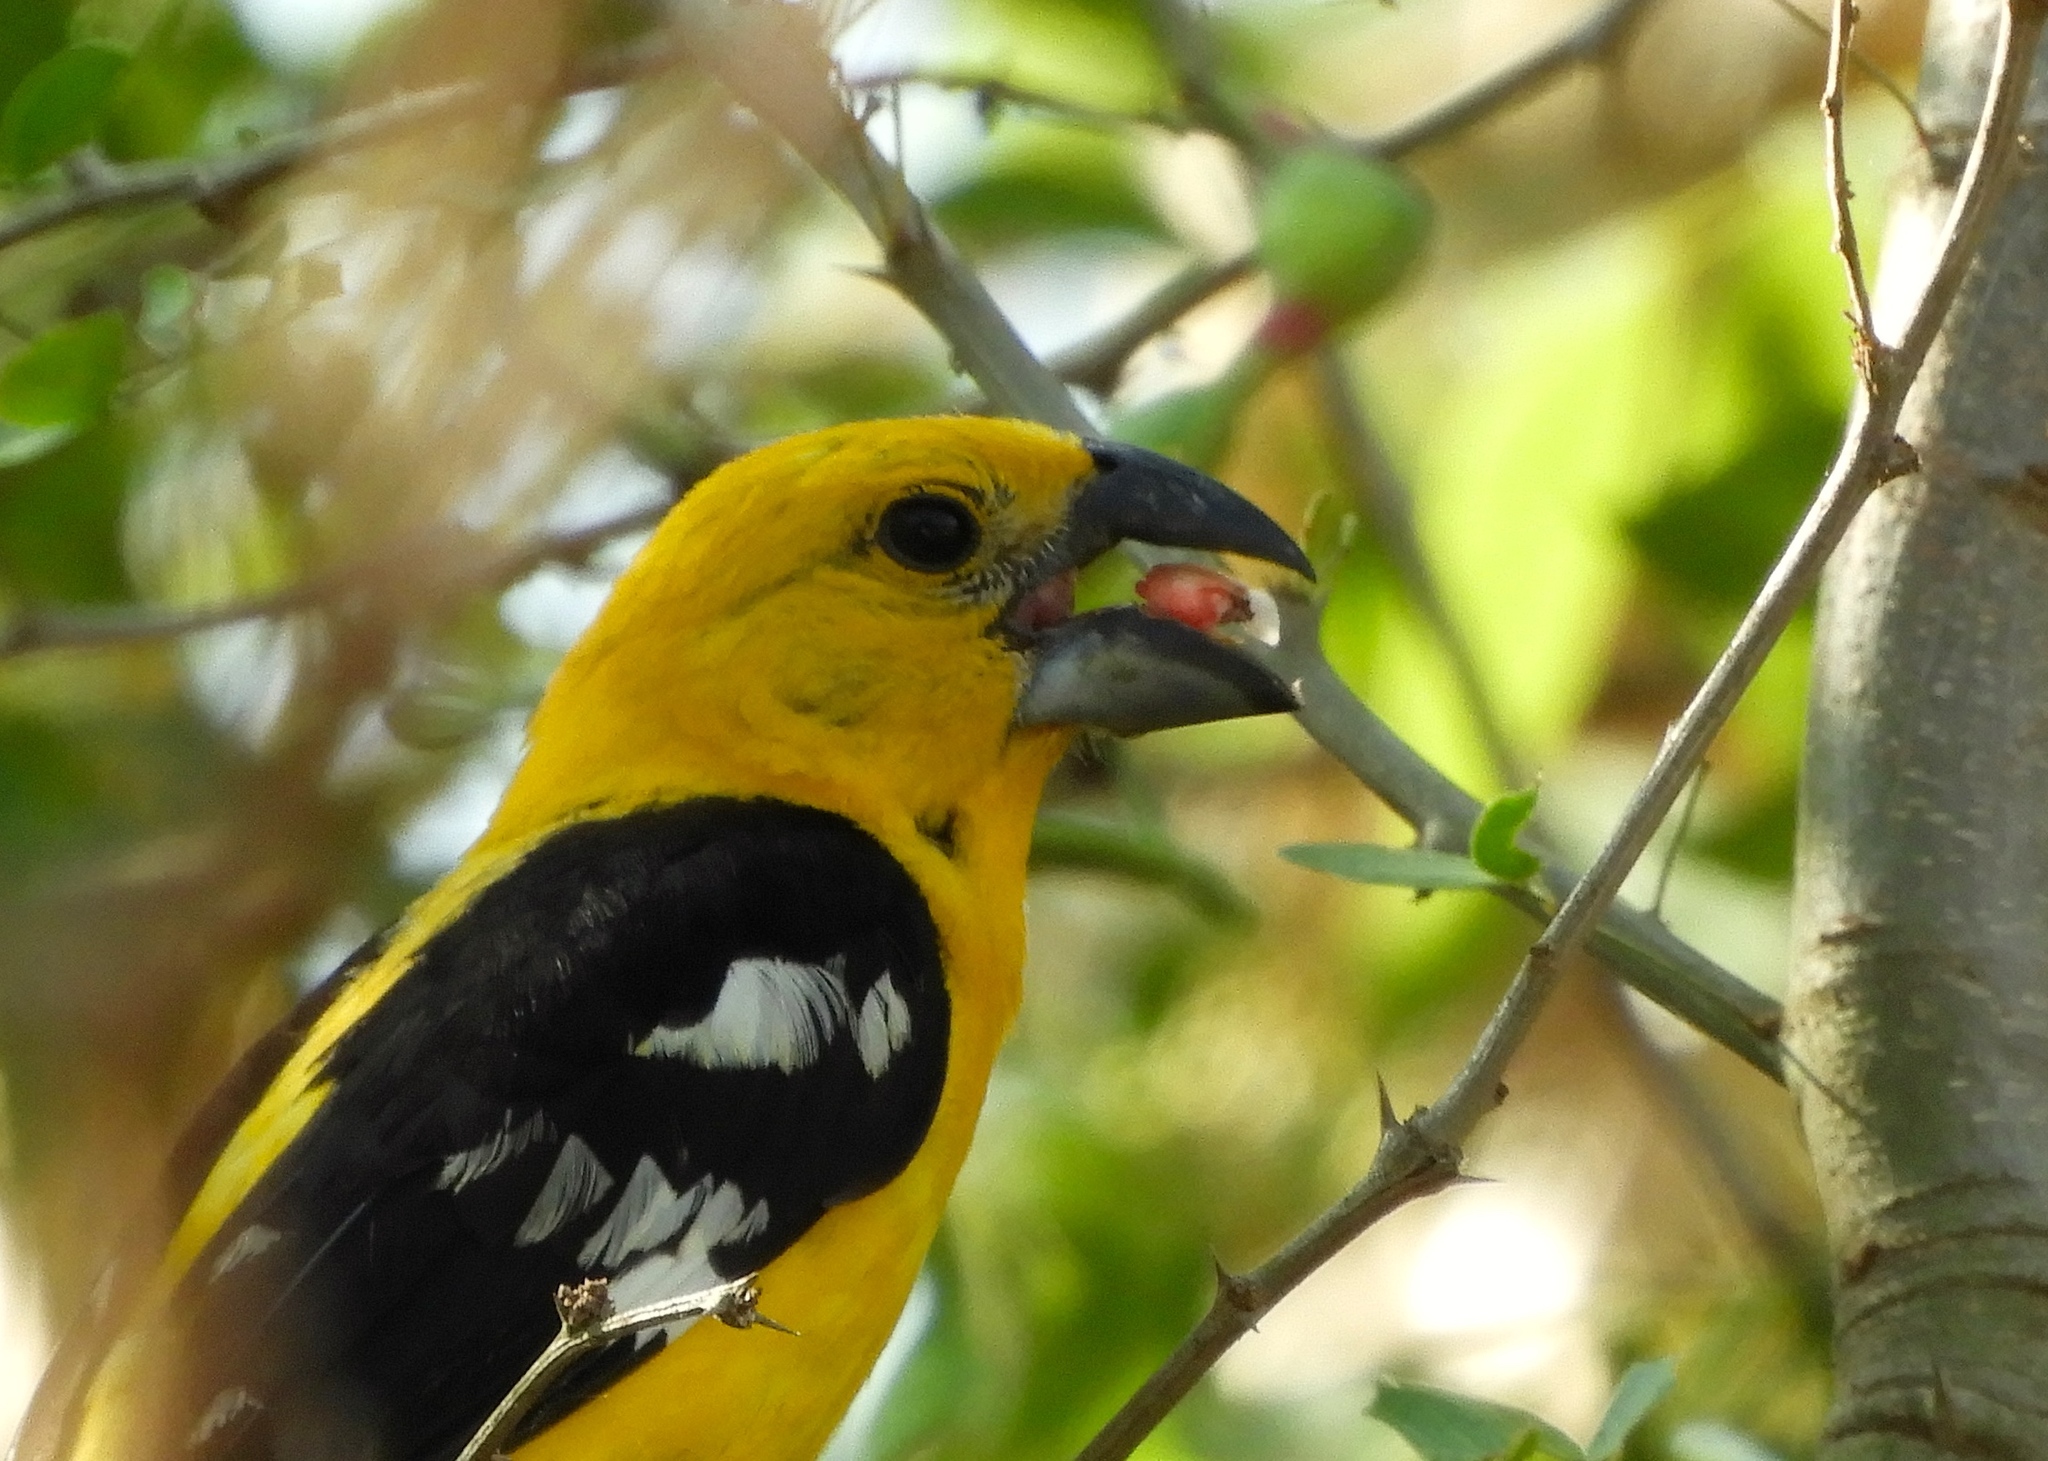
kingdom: Animalia
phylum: Chordata
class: Aves
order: Passeriformes
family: Cardinalidae
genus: Pheucticus
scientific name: Pheucticus chrysopeplus
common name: Yellow grosbeak
